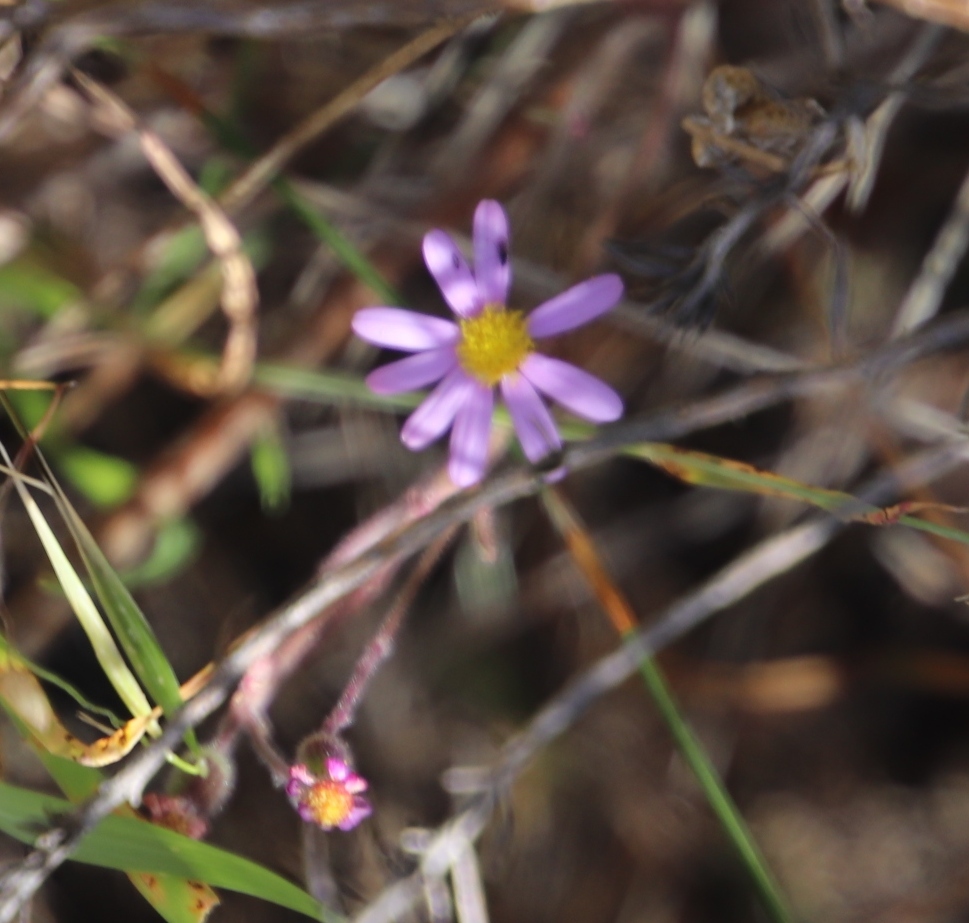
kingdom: Plantae
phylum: Tracheophyta
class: Magnoliopsida
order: Asterales
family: Asteraceae
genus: Senecio
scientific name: Senecio arenarius
